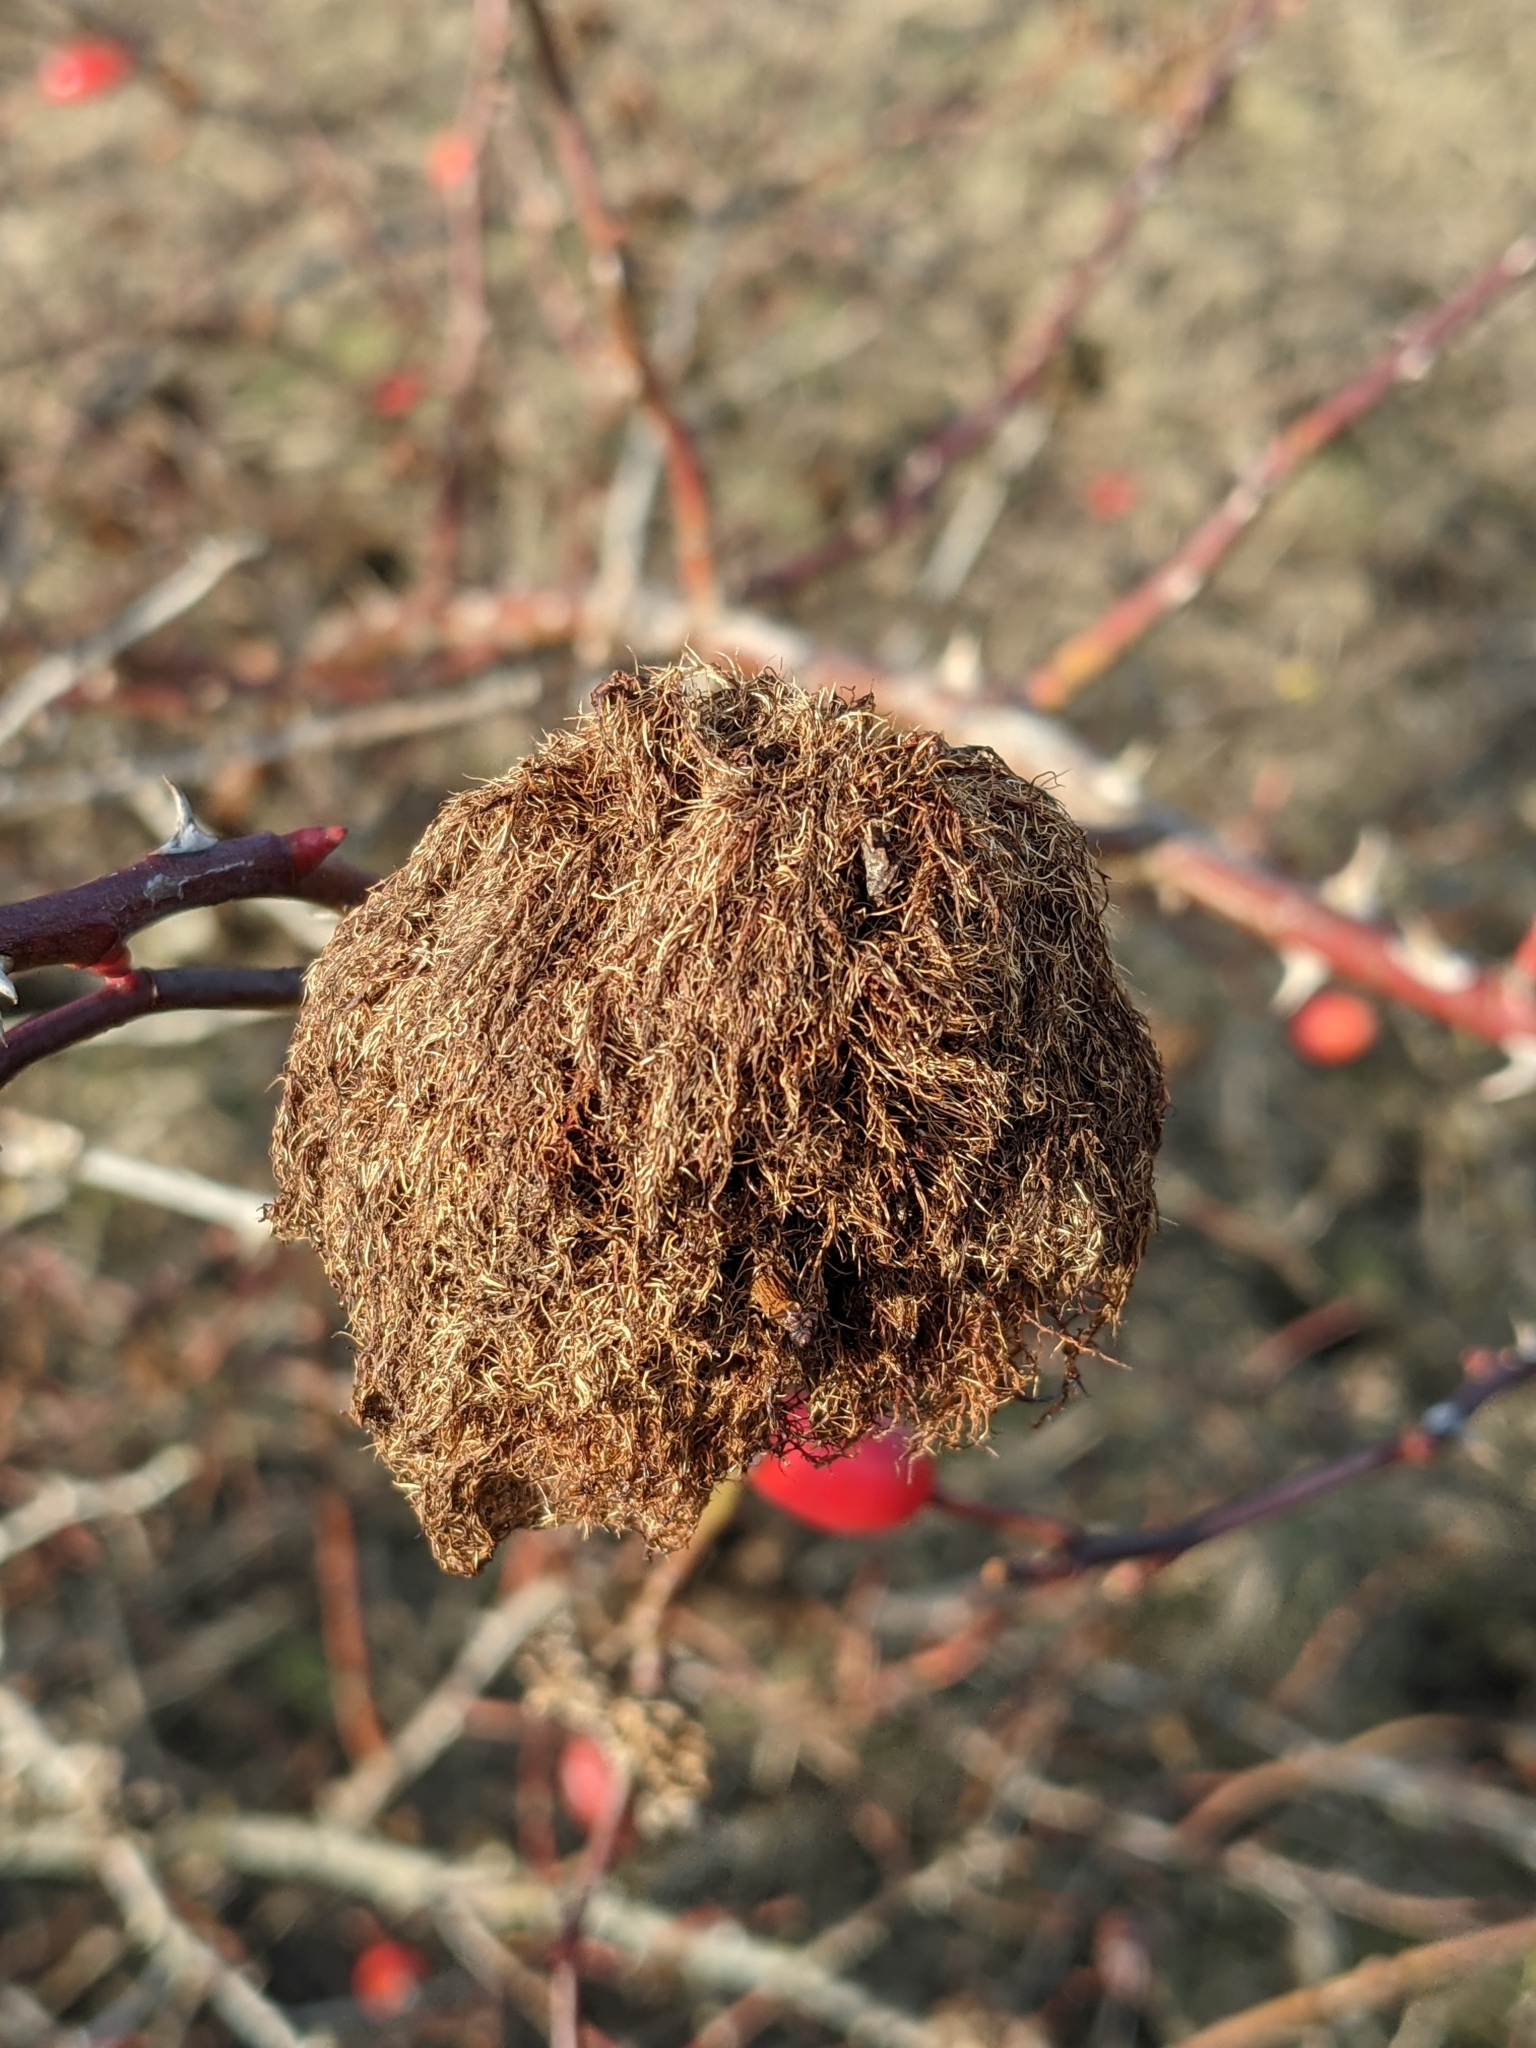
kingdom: Animalia
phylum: Arthropoda
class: Insecta
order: Hymenoptera
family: Cynipidae
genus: Diplolepis
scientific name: Diplolepis rosae
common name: Bedeguar gall
